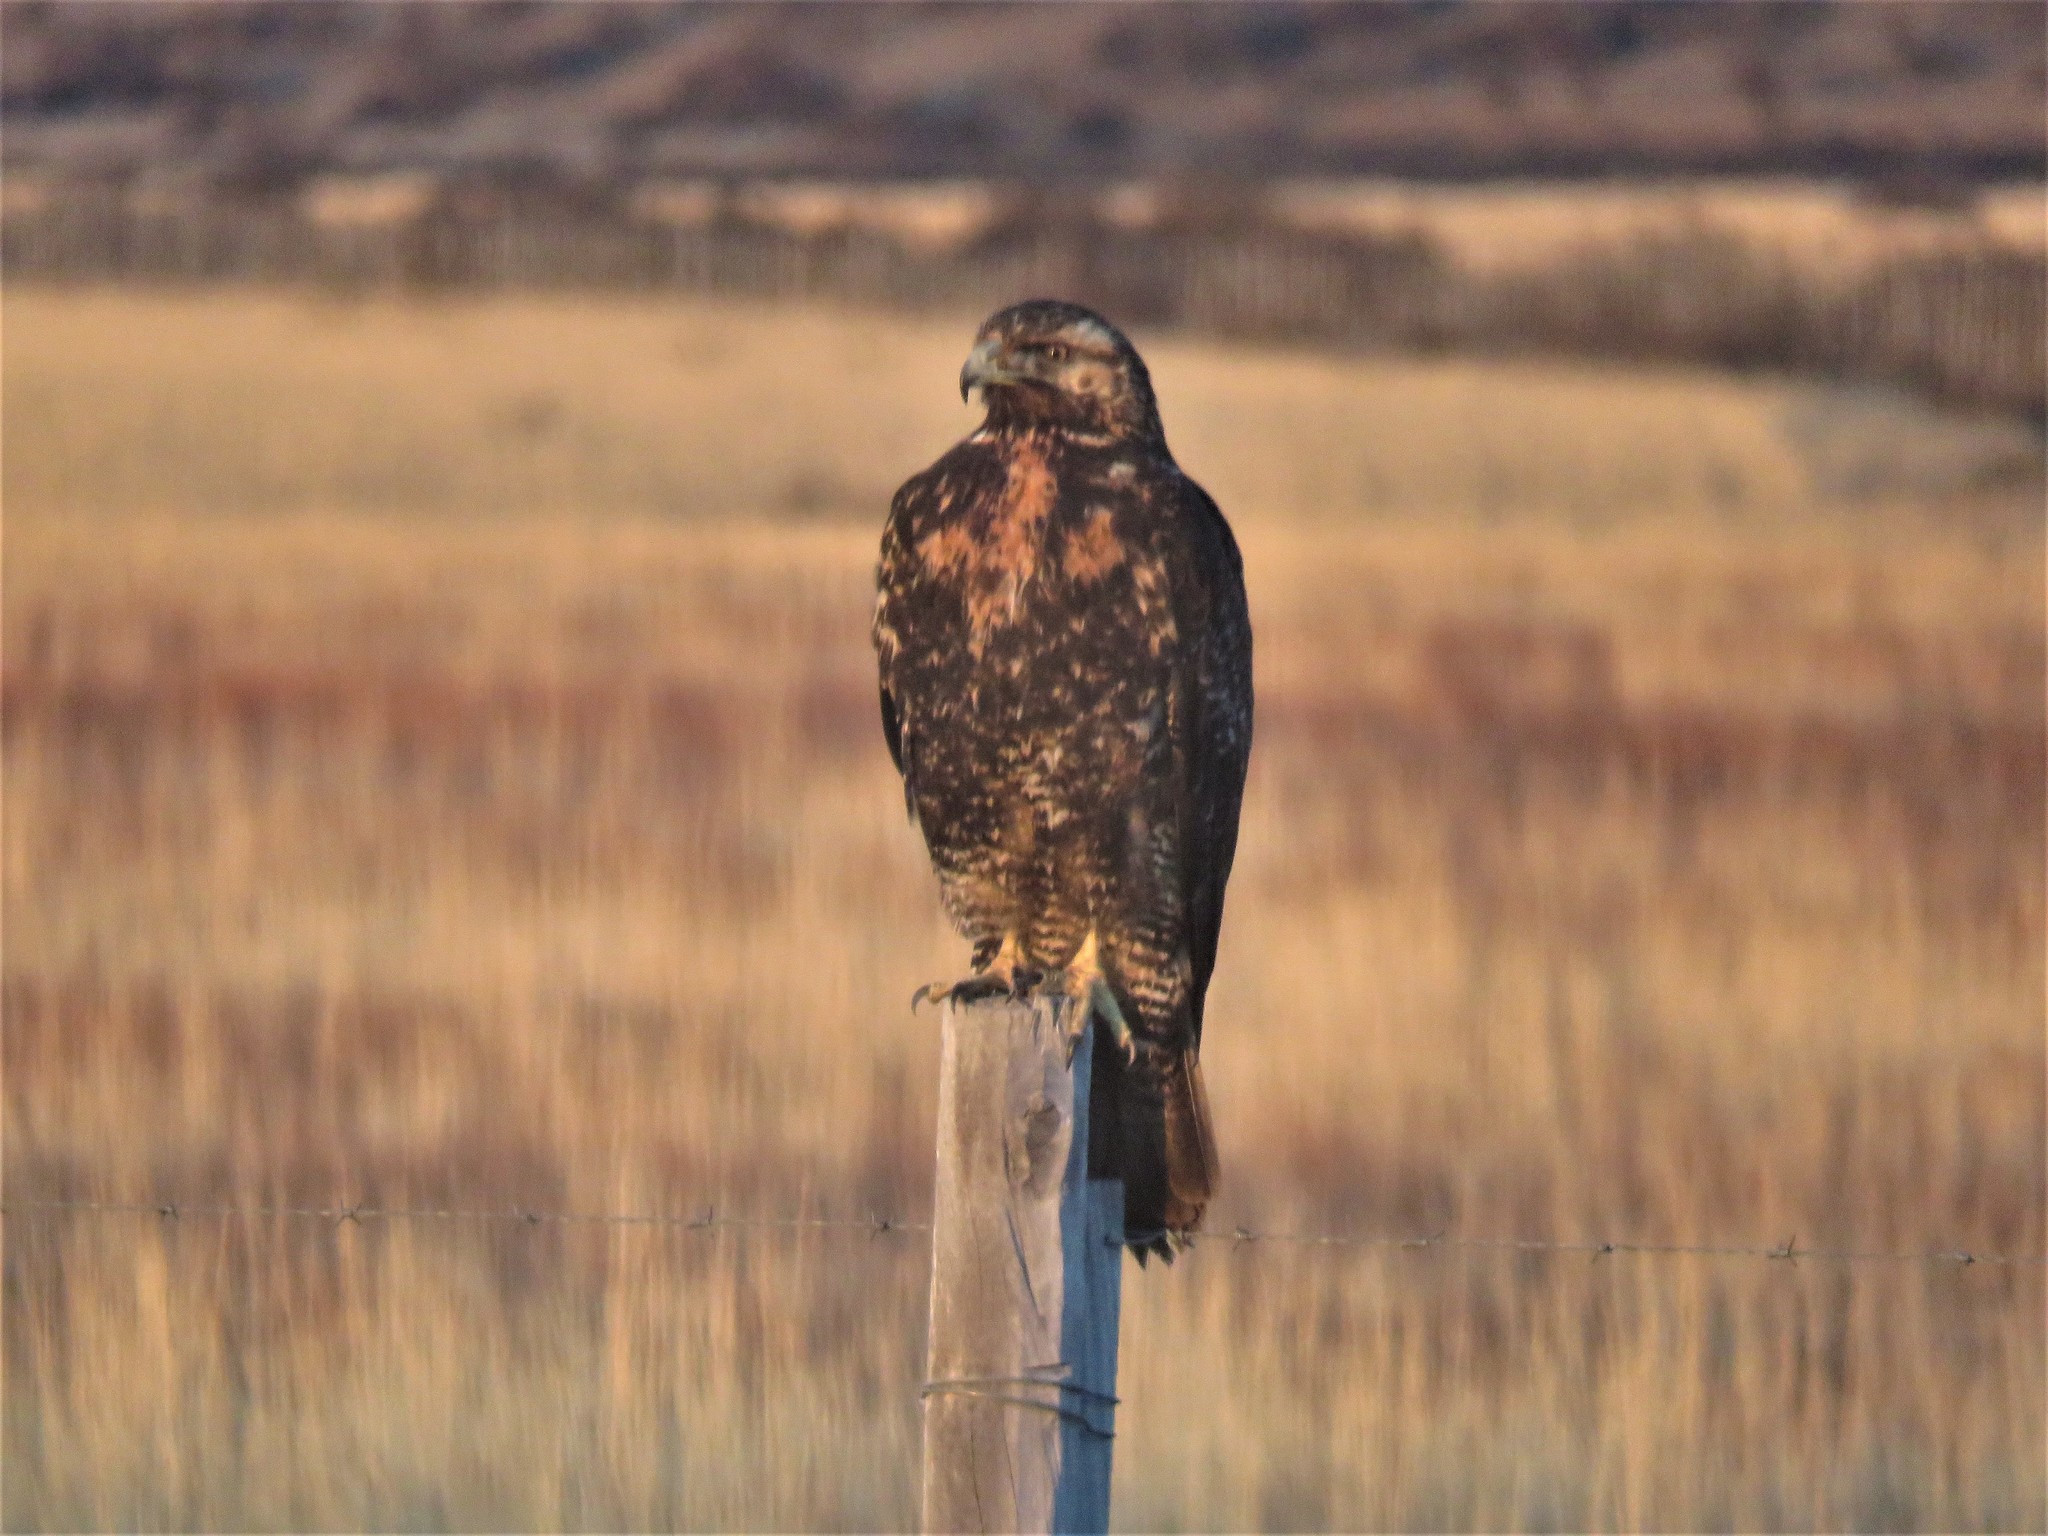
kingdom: Animalia
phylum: Chordata
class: Aves
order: Accipitriformes
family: Accipitridae
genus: Geranoaetus
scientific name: Geranoaetus melanoleucus
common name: Black-chested buzzard-eagle
